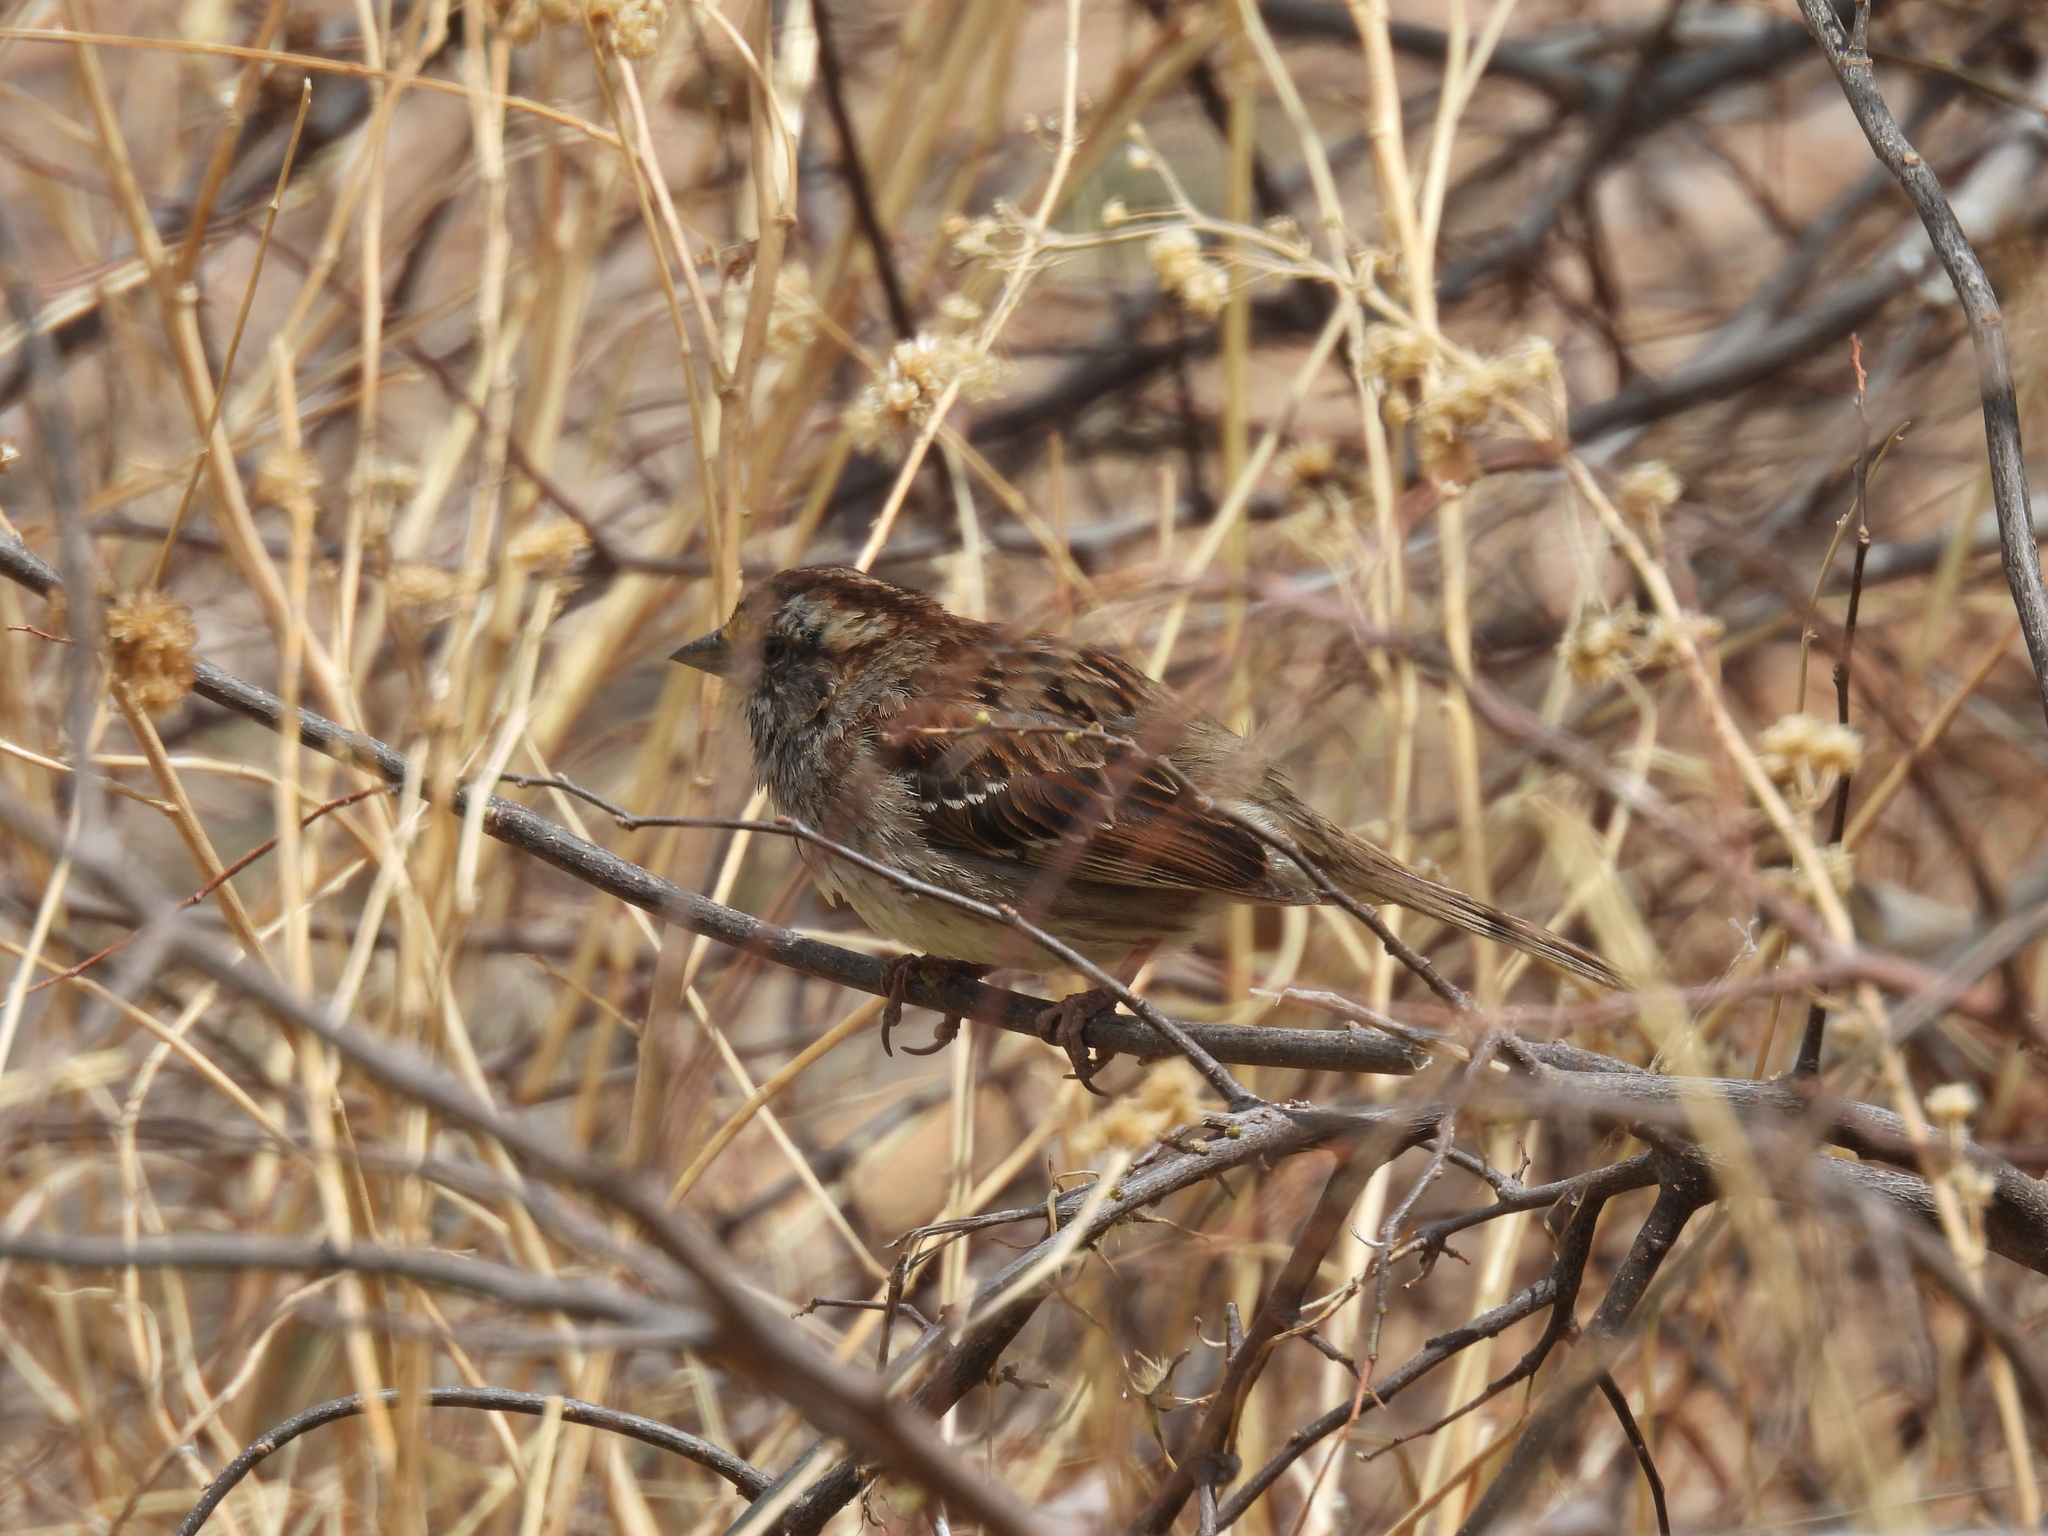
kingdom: Animalia
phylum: Chordata
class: Aves
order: Passeriformes
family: Passerellidae
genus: Zonotrichia
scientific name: Zonotrichia albicollis
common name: White-throated sparrow
